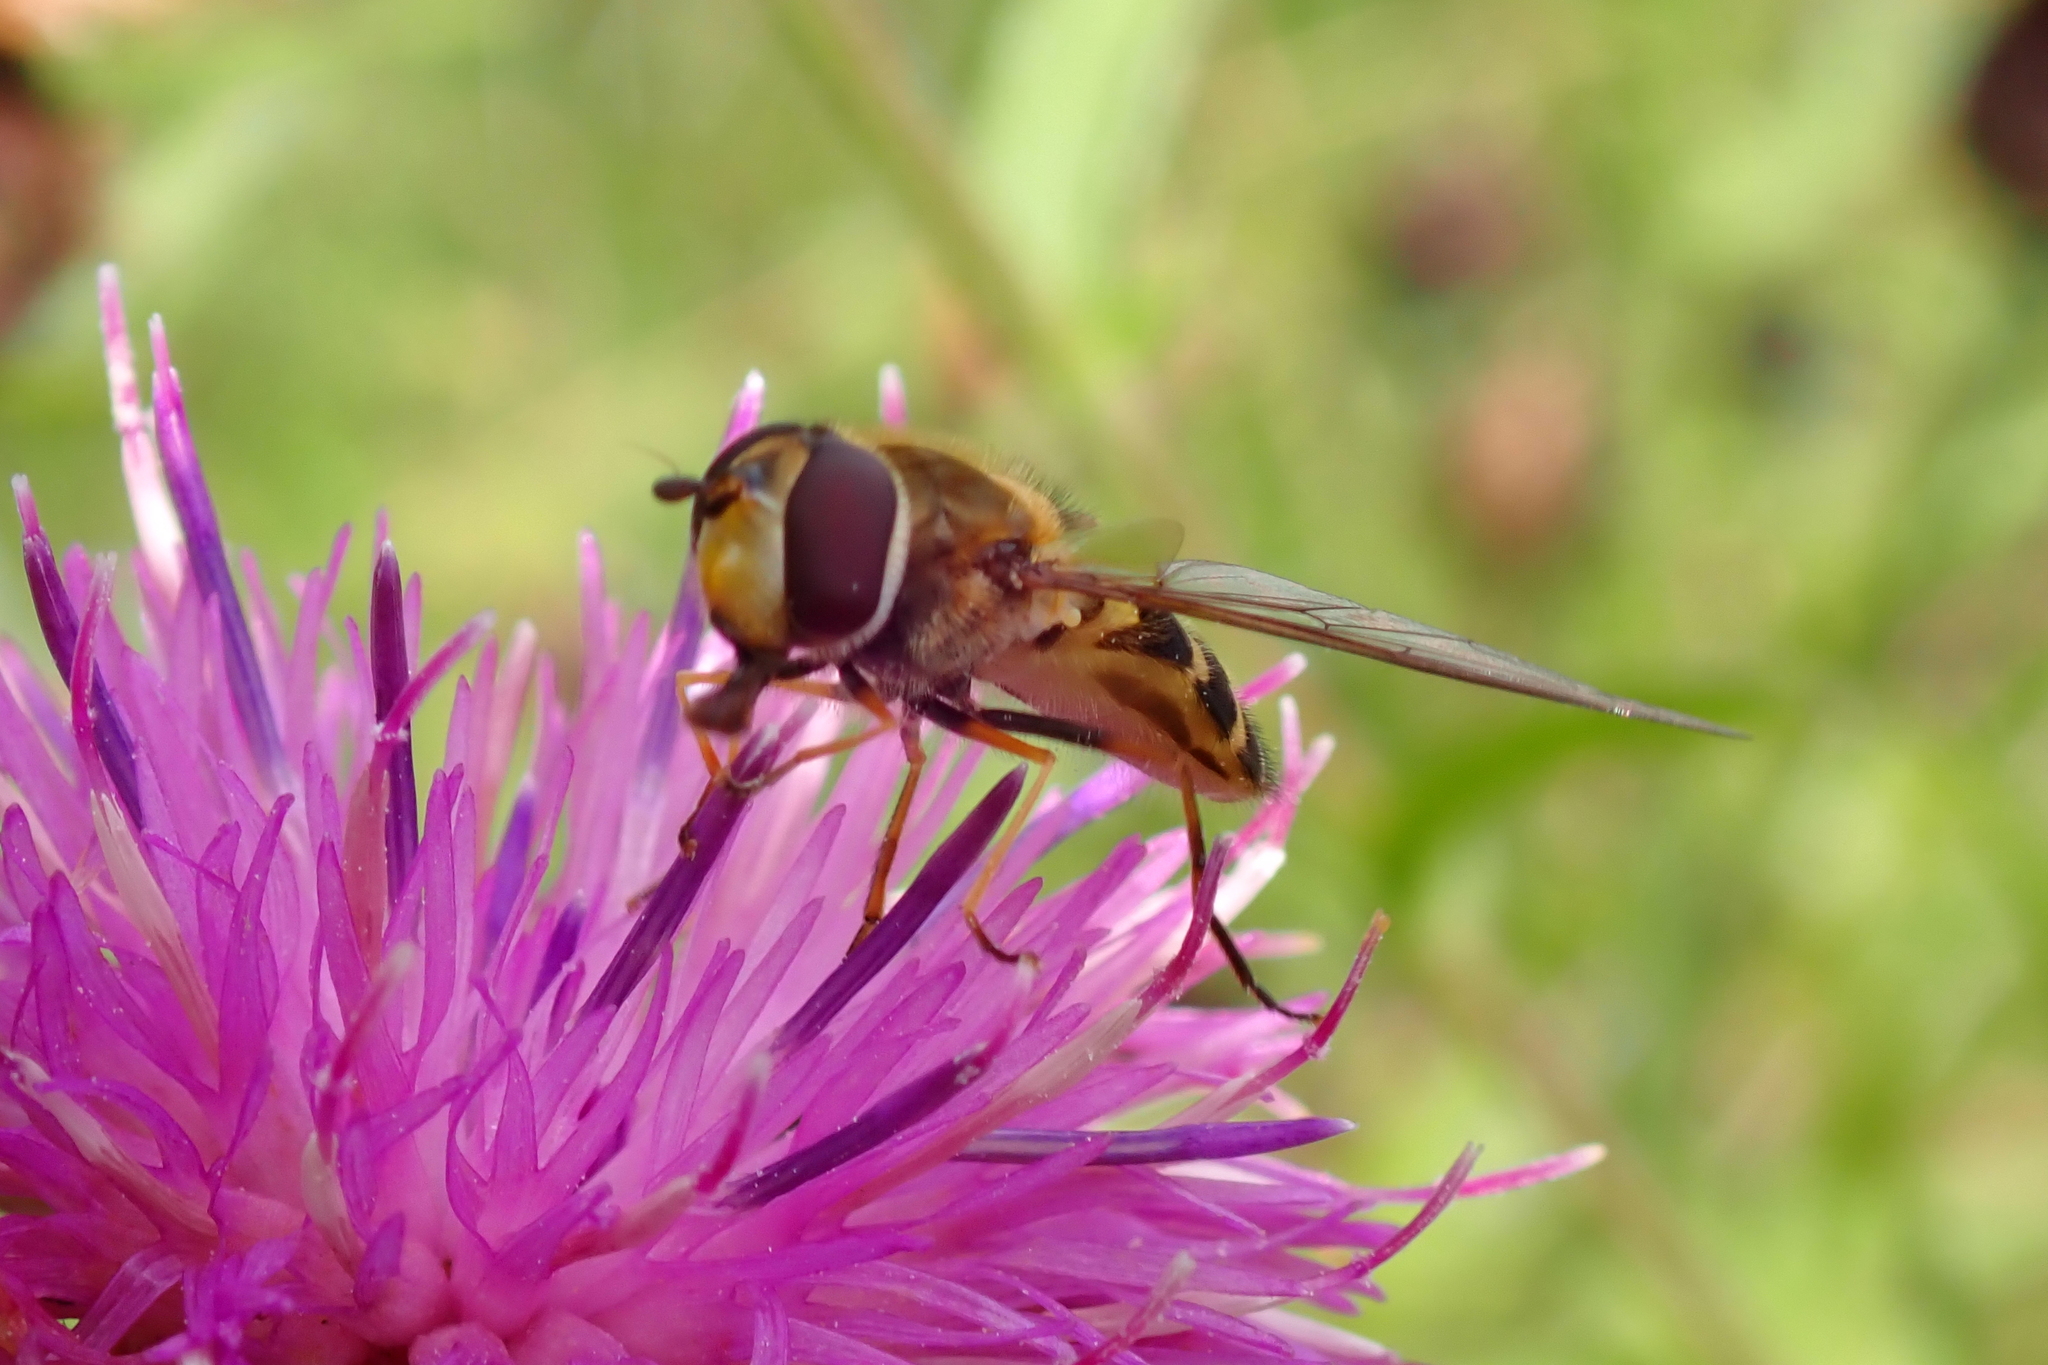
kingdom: Animalia
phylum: Arthropoda
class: Insecta
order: Diptera
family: Syrphidae
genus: Syrphus
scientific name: Syrphus
